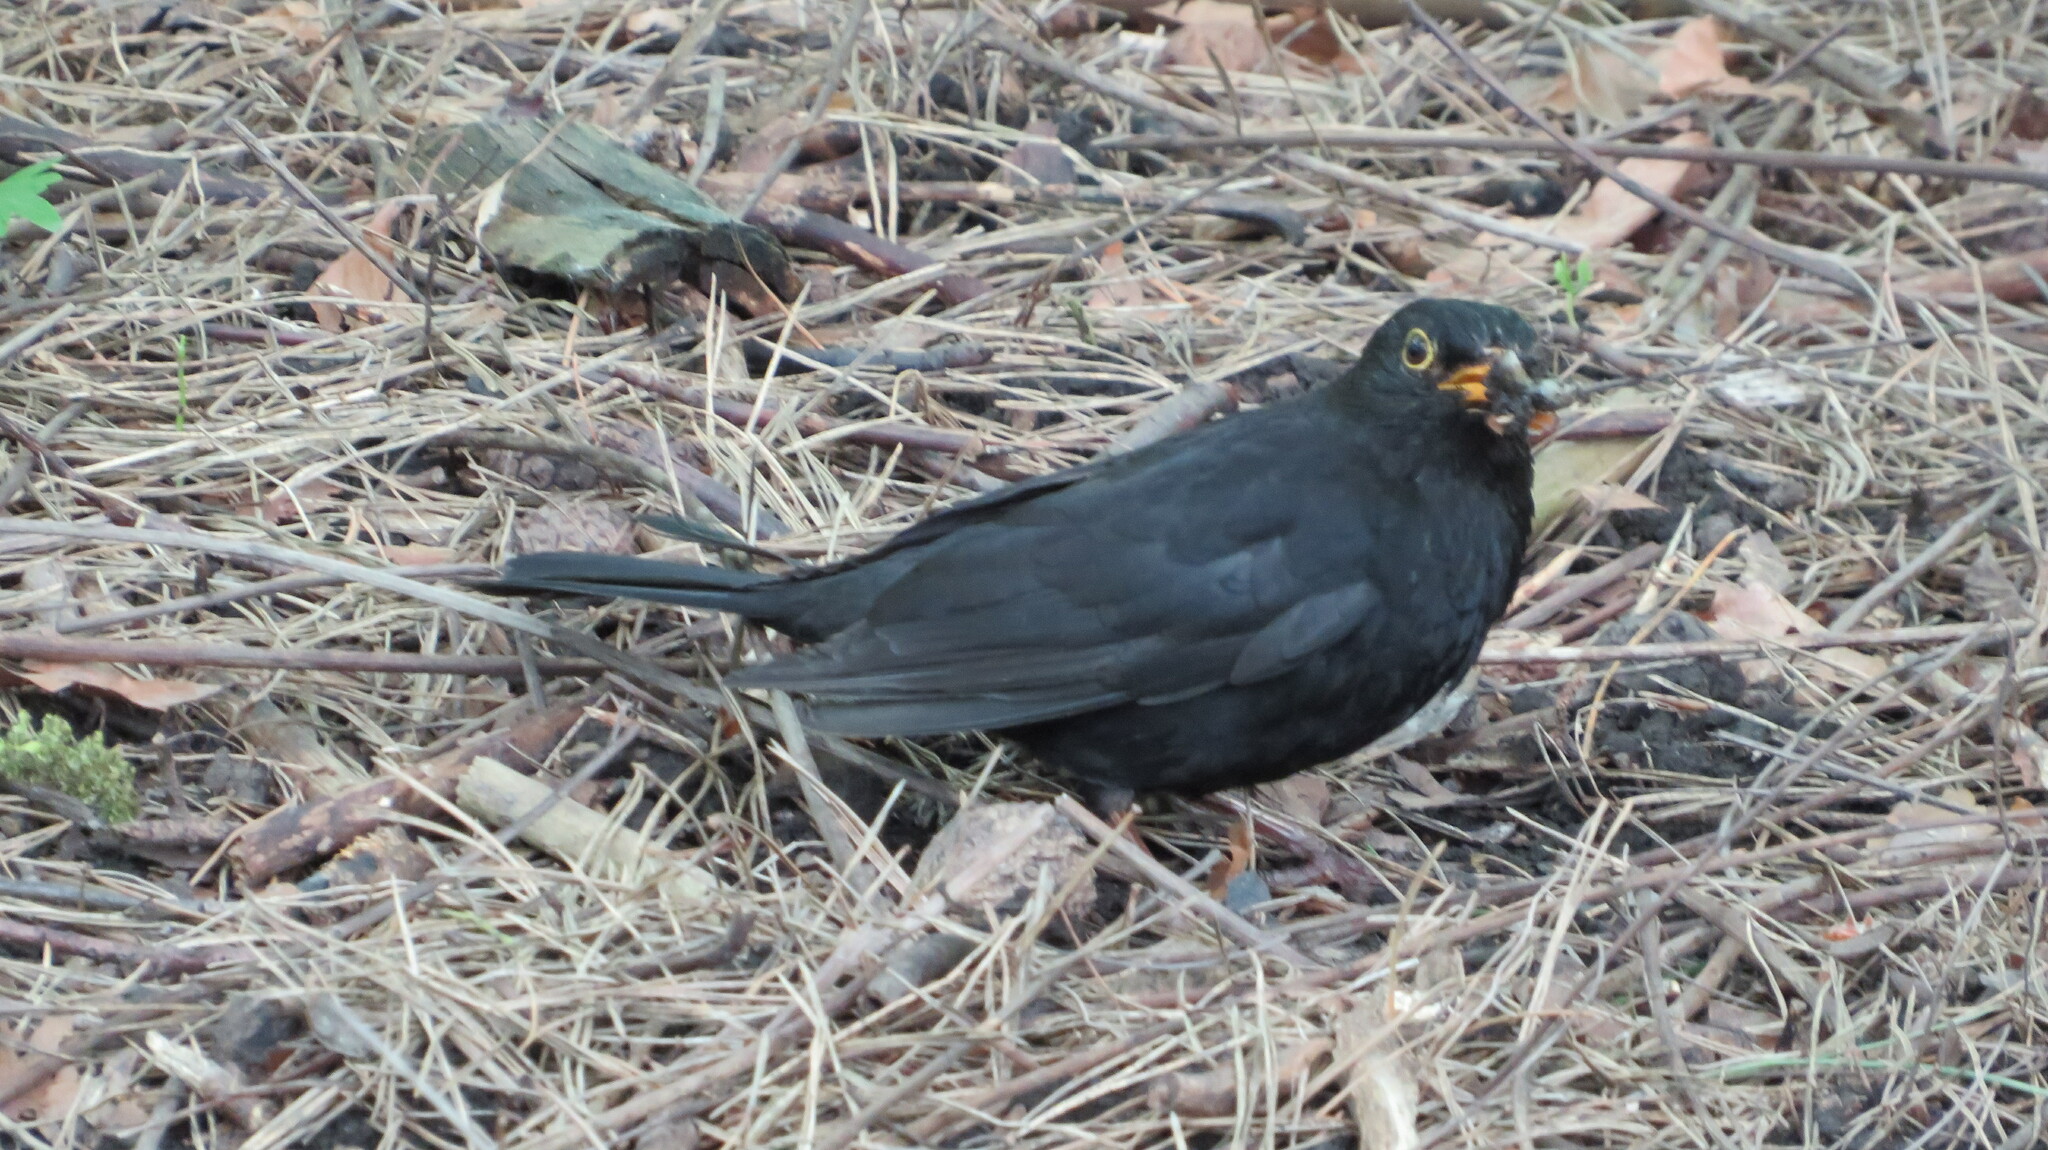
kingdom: Animalia
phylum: Chordata
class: Aves
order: Passeriformes
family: Turdidae
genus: Turdus
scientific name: Turdus merula
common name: Common blackbird
